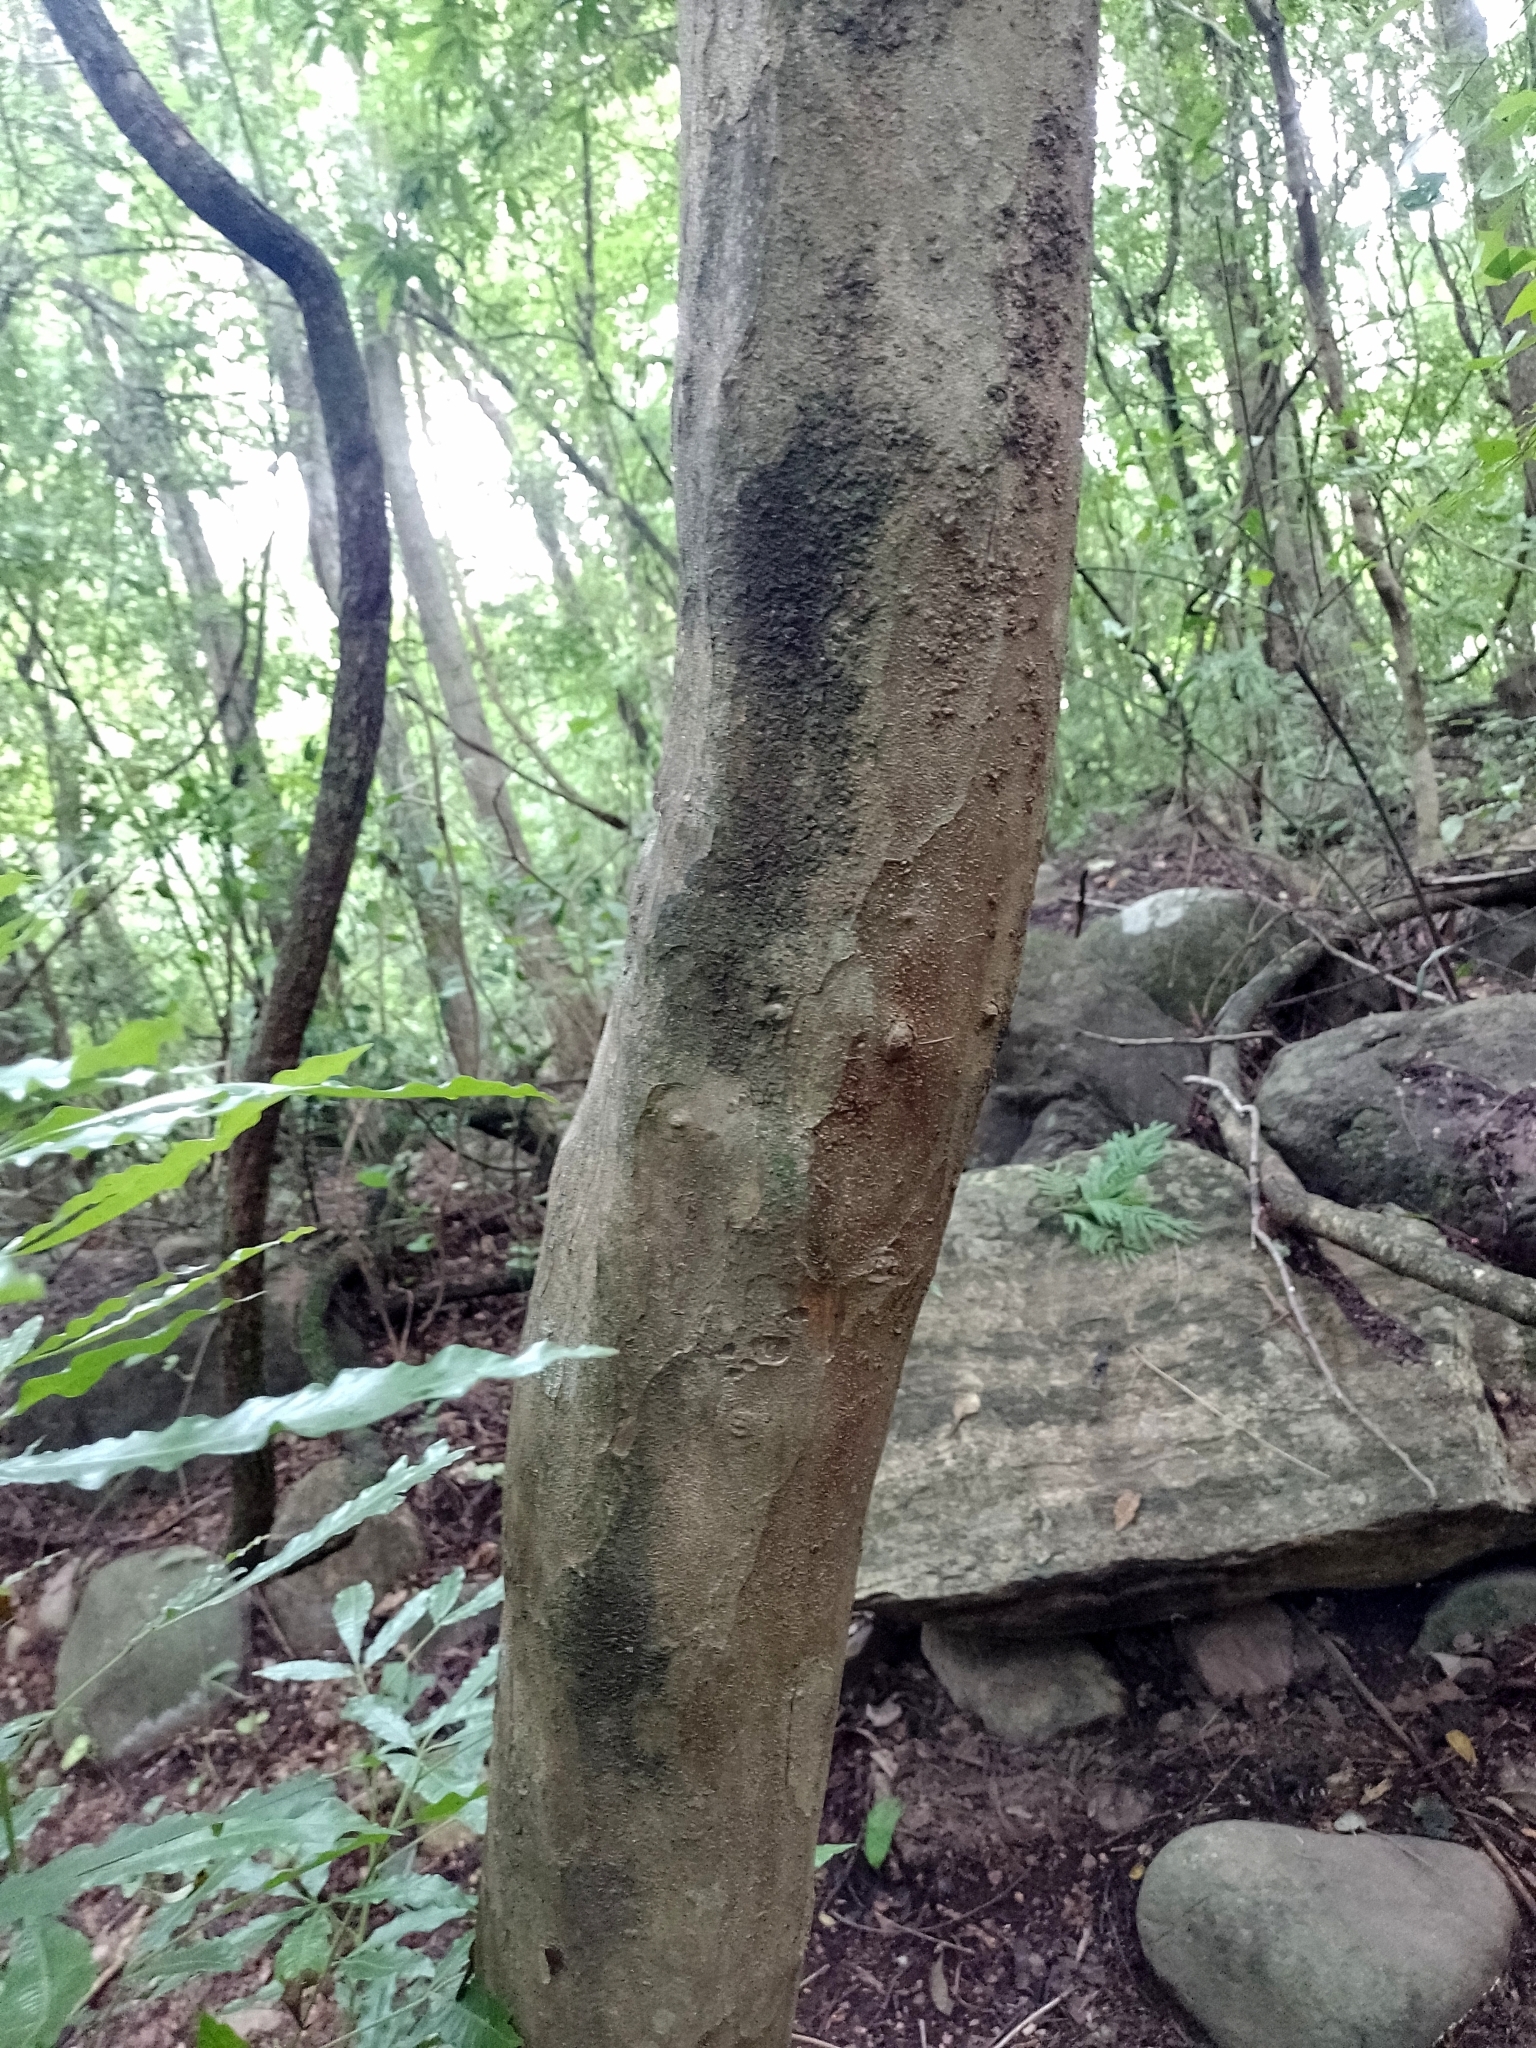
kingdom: Plantae
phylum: Tracheophyta
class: Magnoliopsida
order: Sapindales
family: Meliaceae
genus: Trichilia
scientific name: Trichilia claussenii
